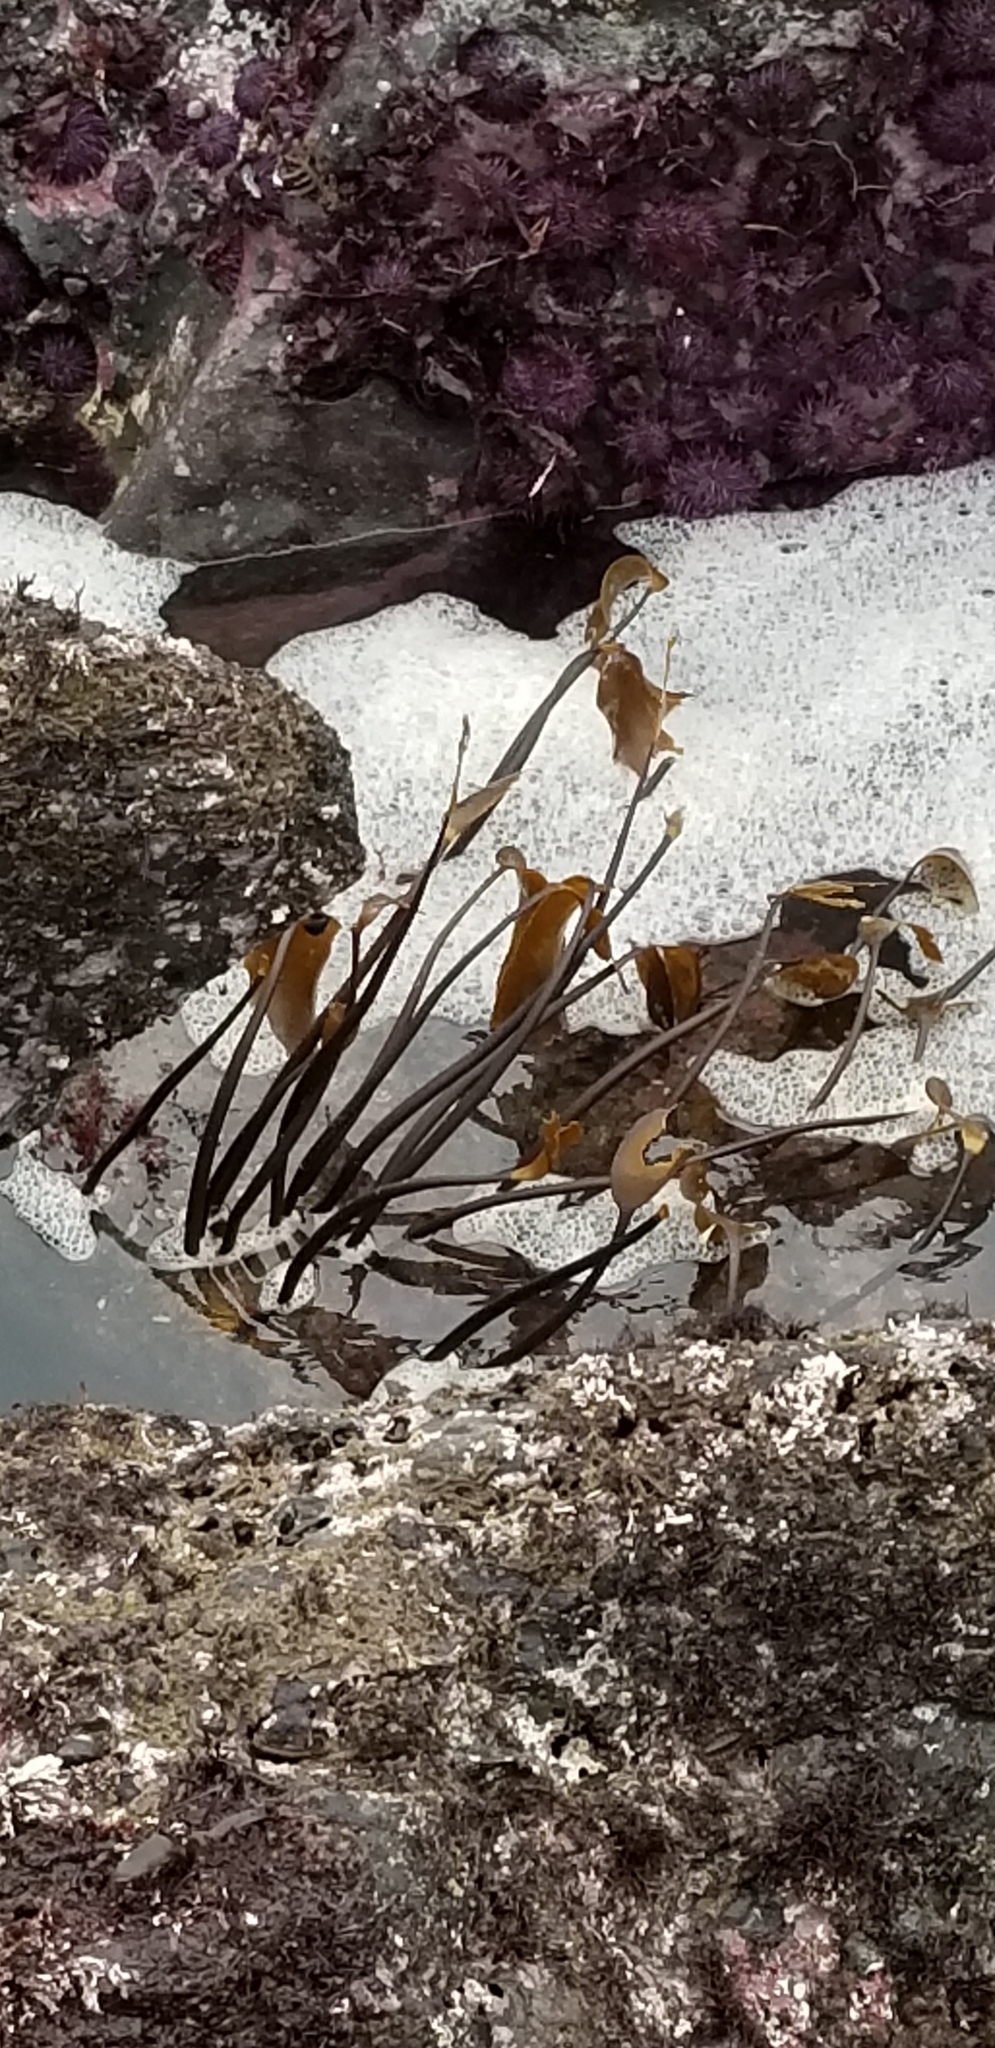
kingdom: Chromista
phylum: Ochrophyta
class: Phaeophyceae
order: Laminariales
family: Laminariaceae
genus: Laminaria
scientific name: Laminaria sinclairii
